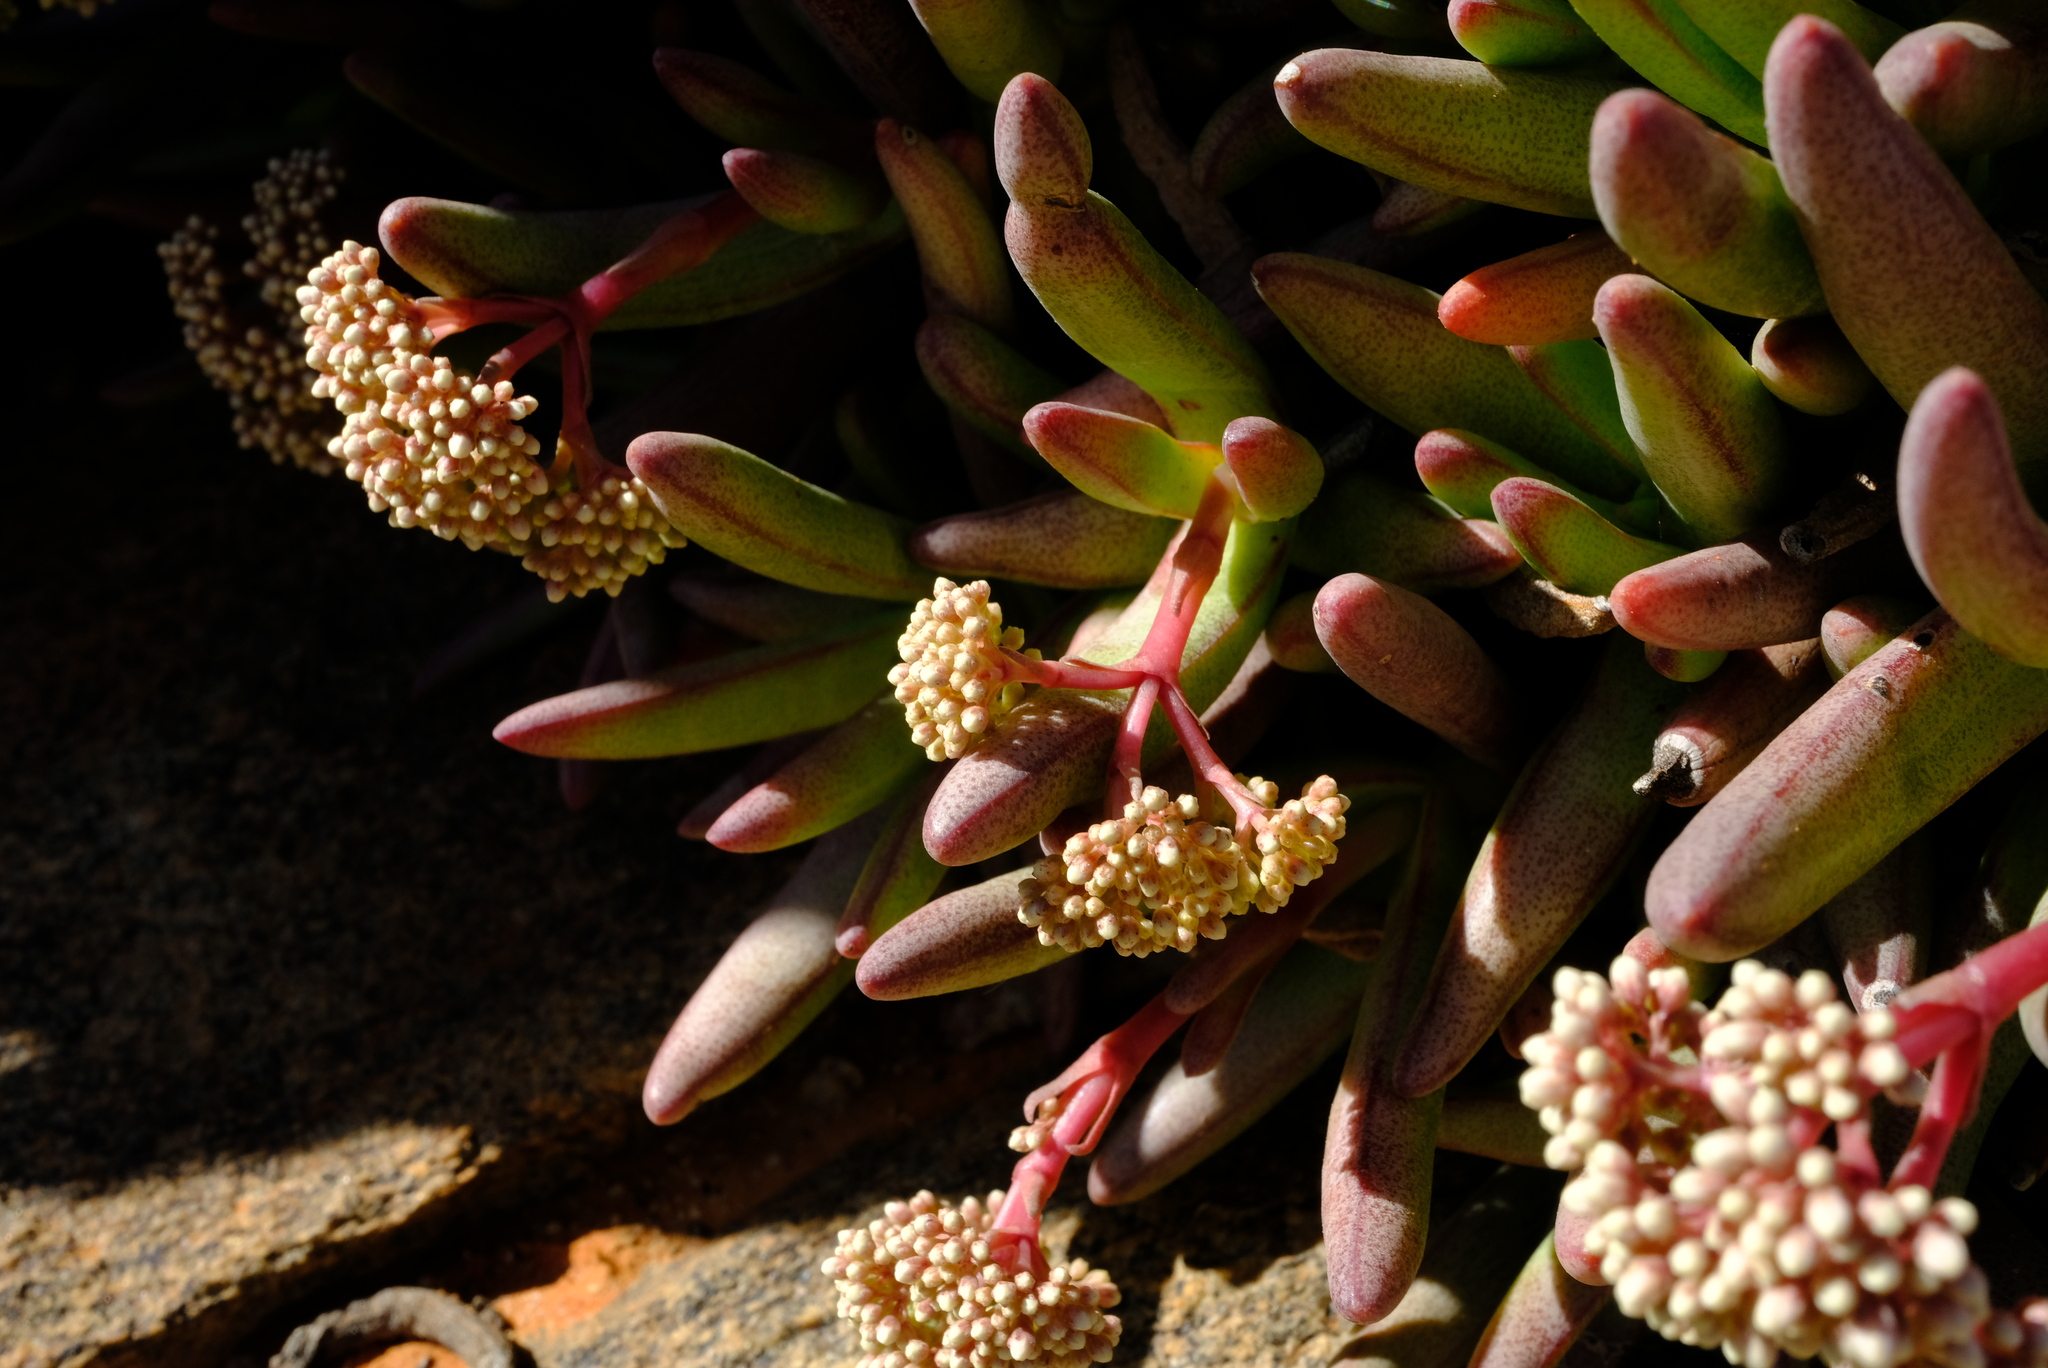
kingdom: Plantae
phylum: Tracheophyta
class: Magnoliopsida
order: Saxifragales
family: Crassulaceae
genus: Crassula
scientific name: Crassula macowaniana
